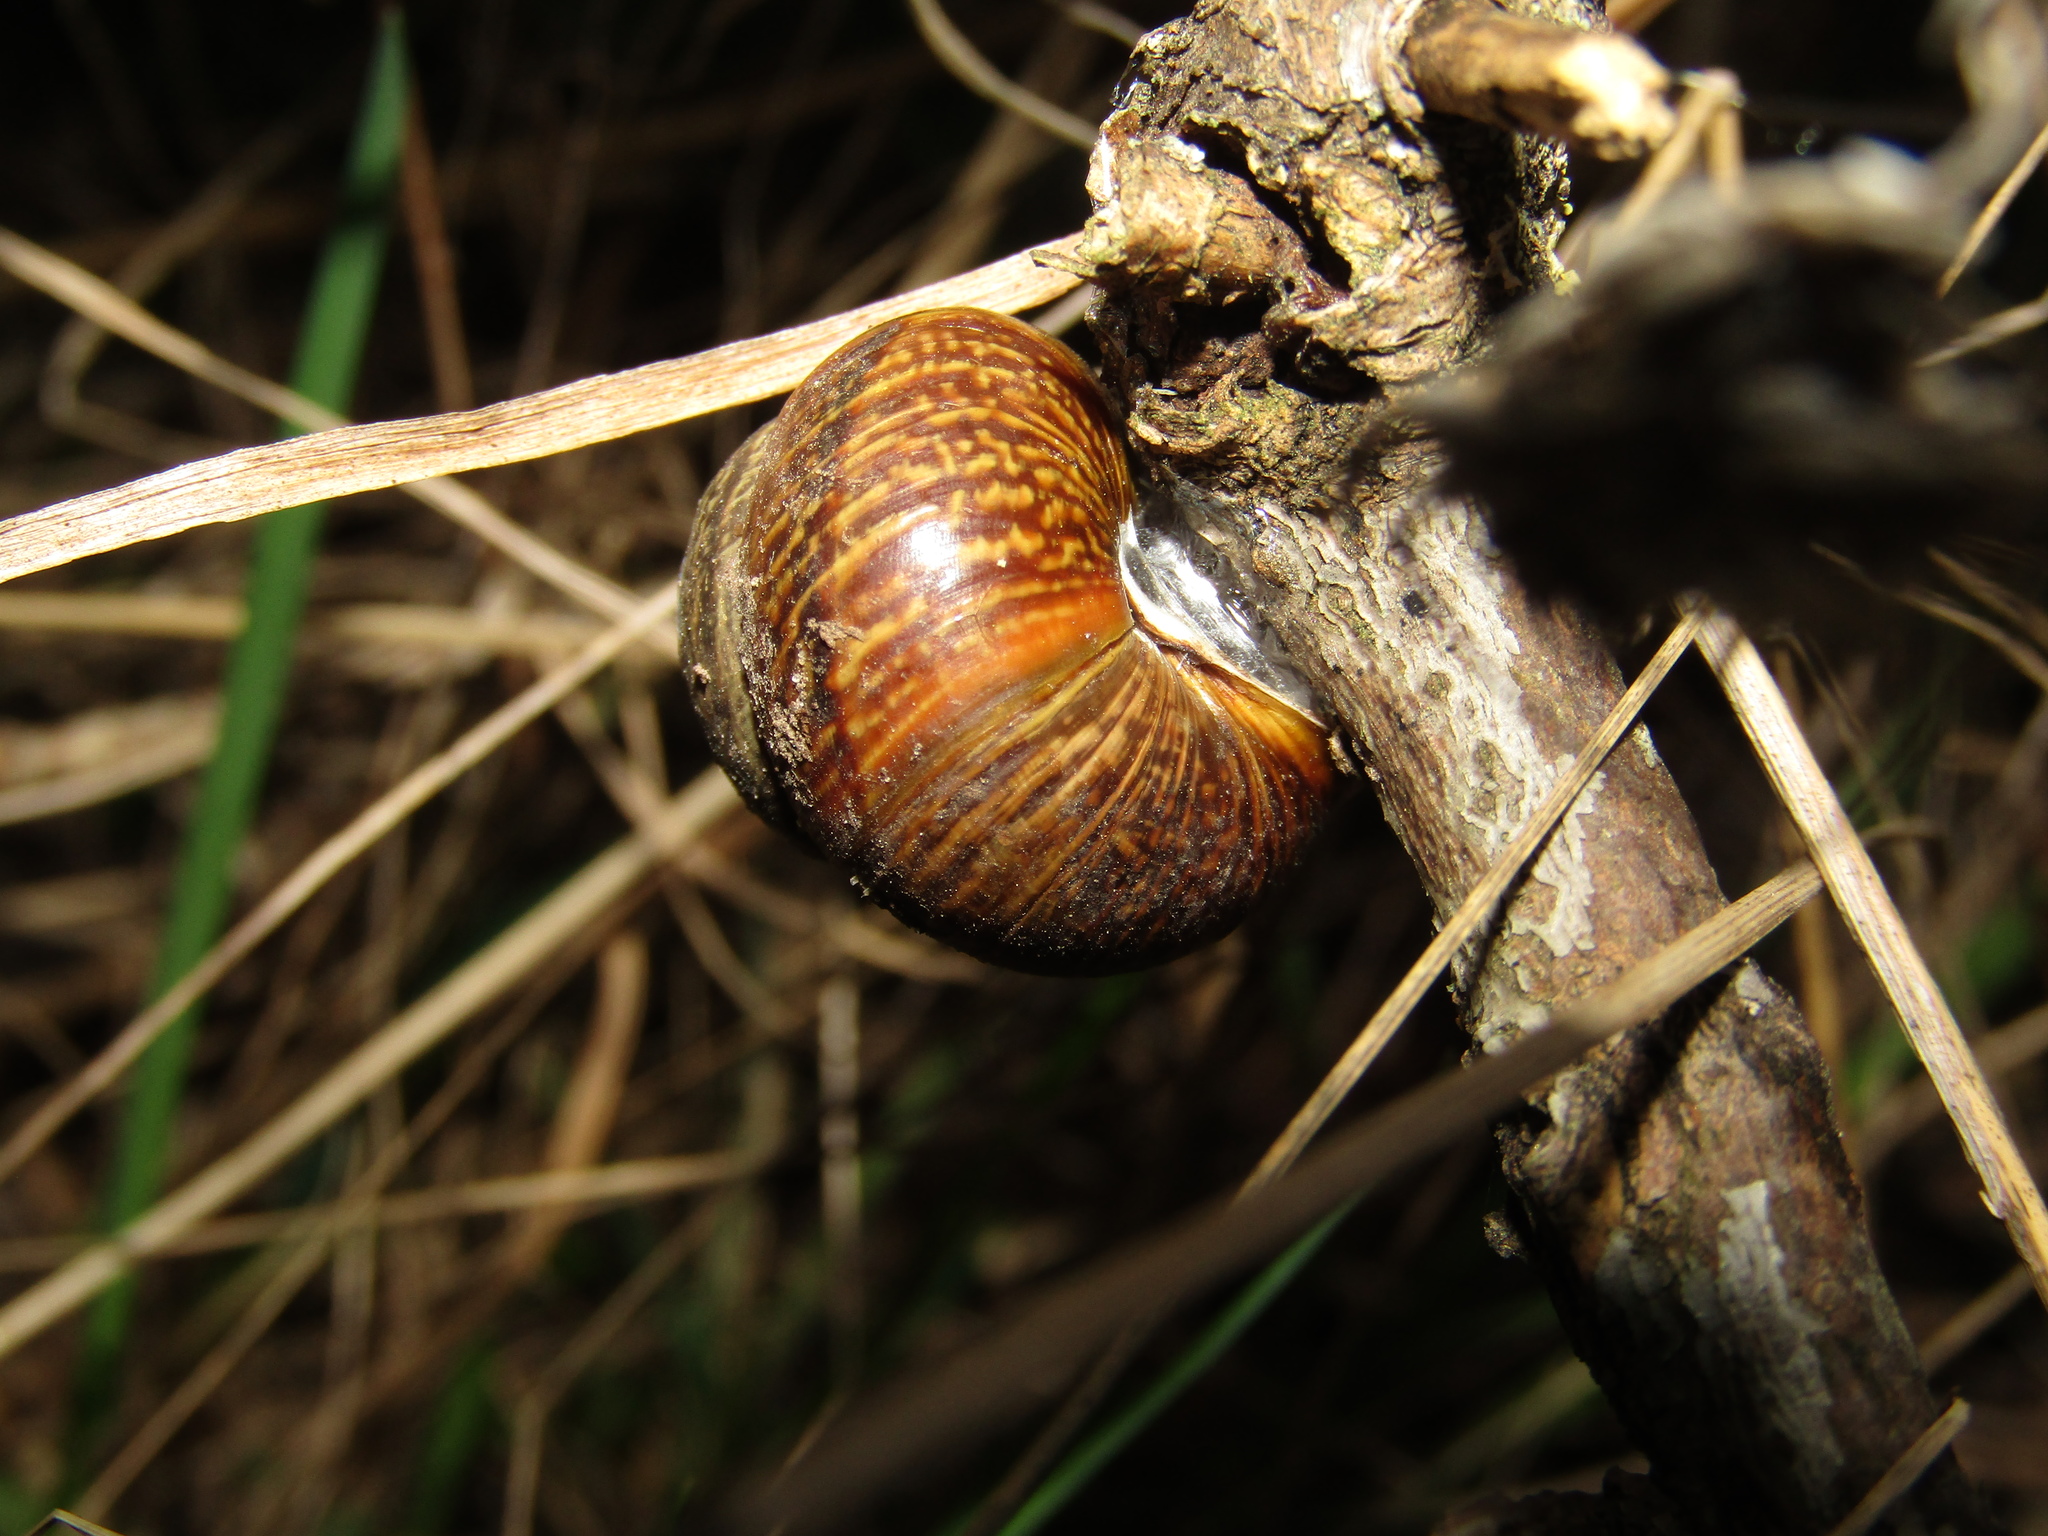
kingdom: Animalia
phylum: Mollusca
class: Gastropoda
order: Stylommatophora
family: Helicidae
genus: Arianta
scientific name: Arianta arbustorum
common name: Copse snail
